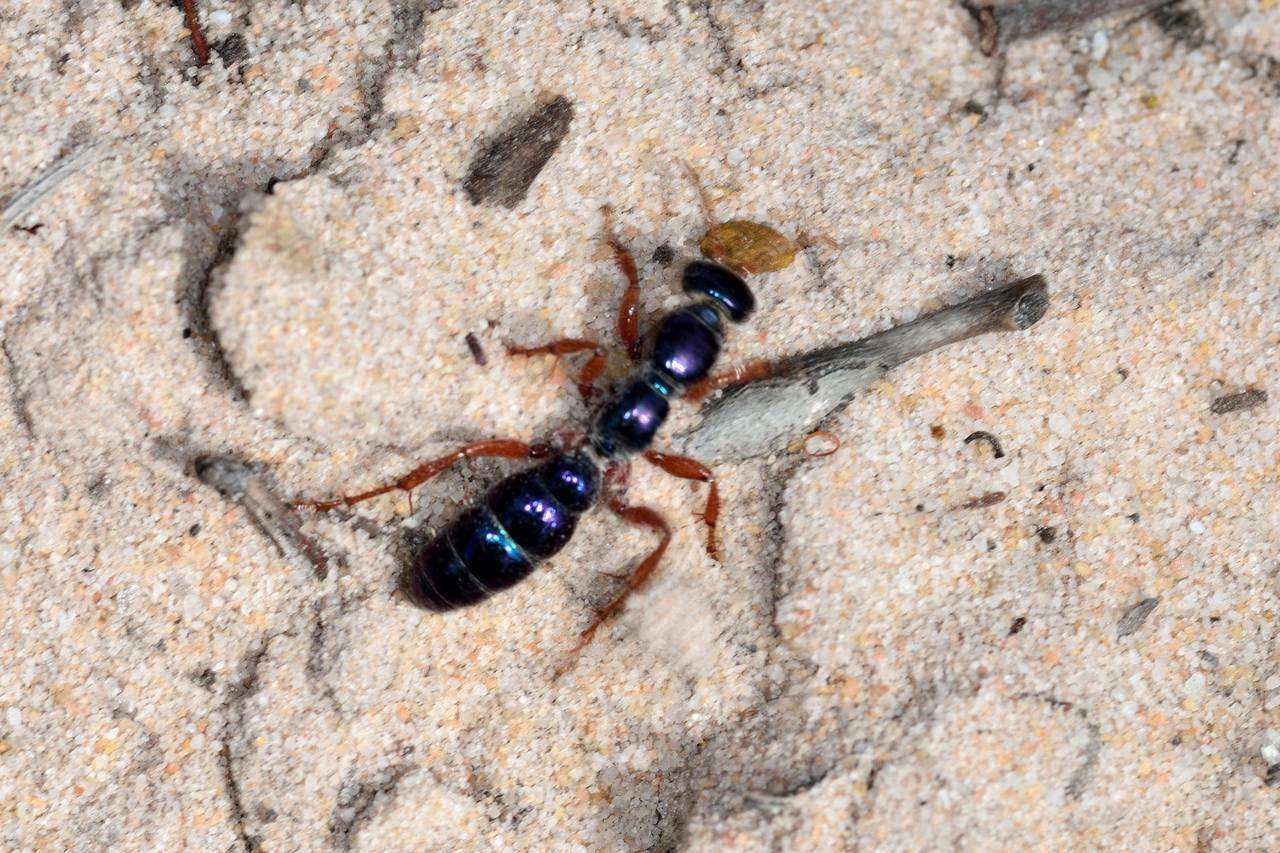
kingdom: Animalia
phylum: Arthropoda
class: Insecta
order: Hymenoptera
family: Tiphiidae
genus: Diamma
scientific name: Diamma
